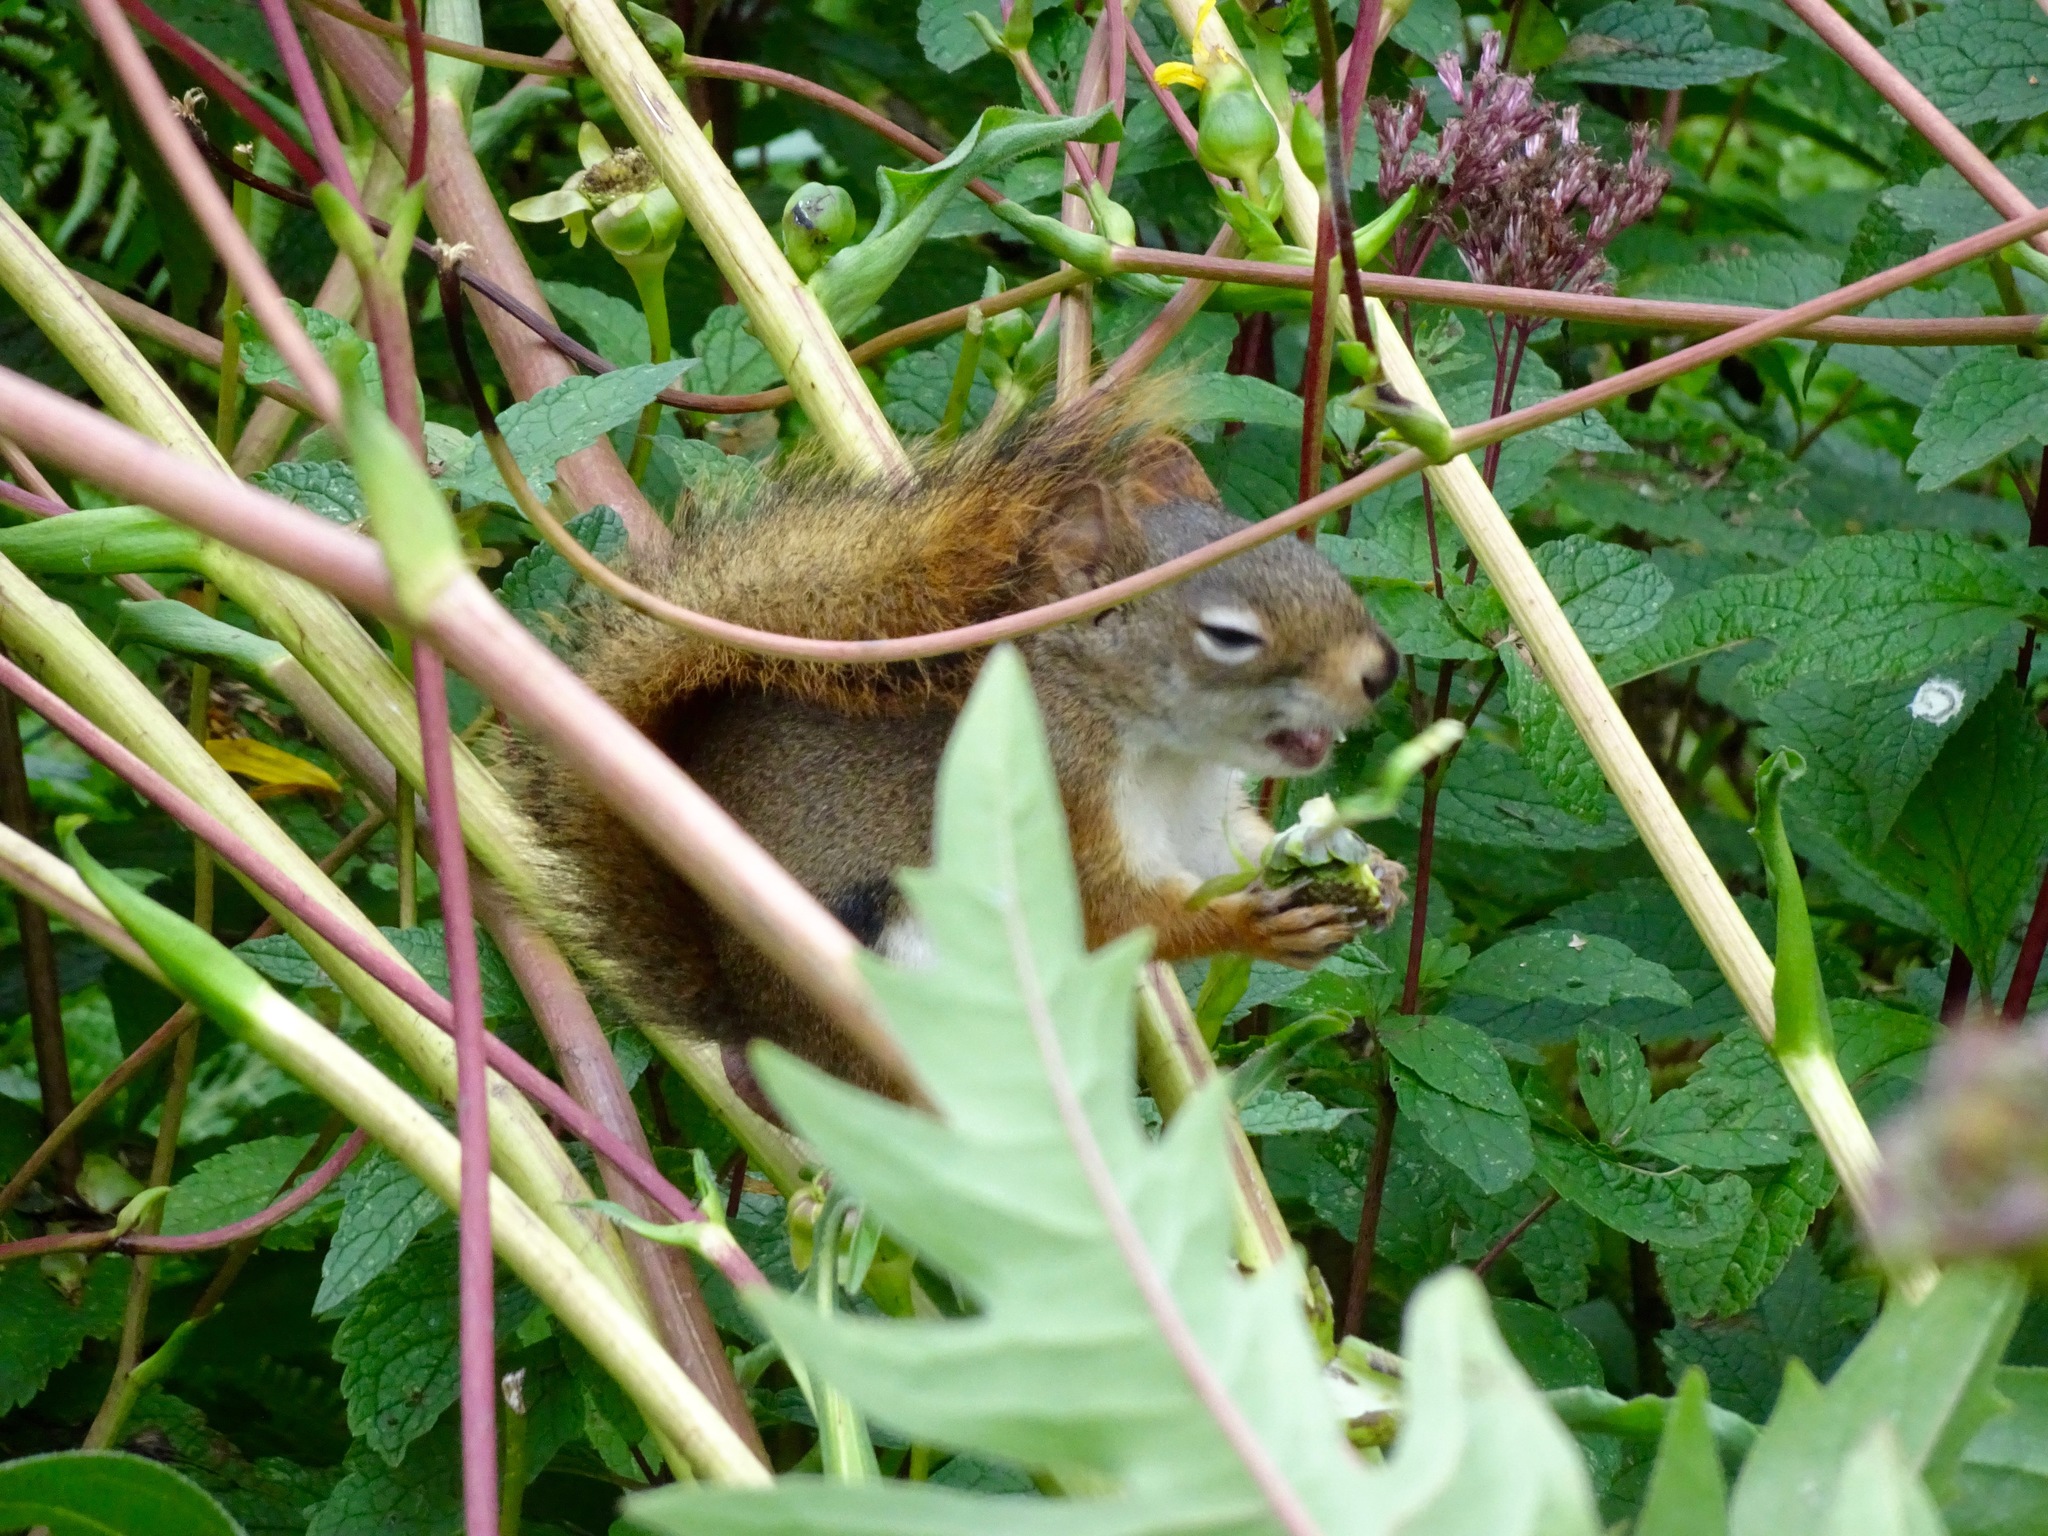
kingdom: Animalia
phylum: Chordata
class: Mammalia
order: Rodentia
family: Sciuridae
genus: Tamiasciurus
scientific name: Tamiasciurus hudsonicus
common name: Red squirrel
